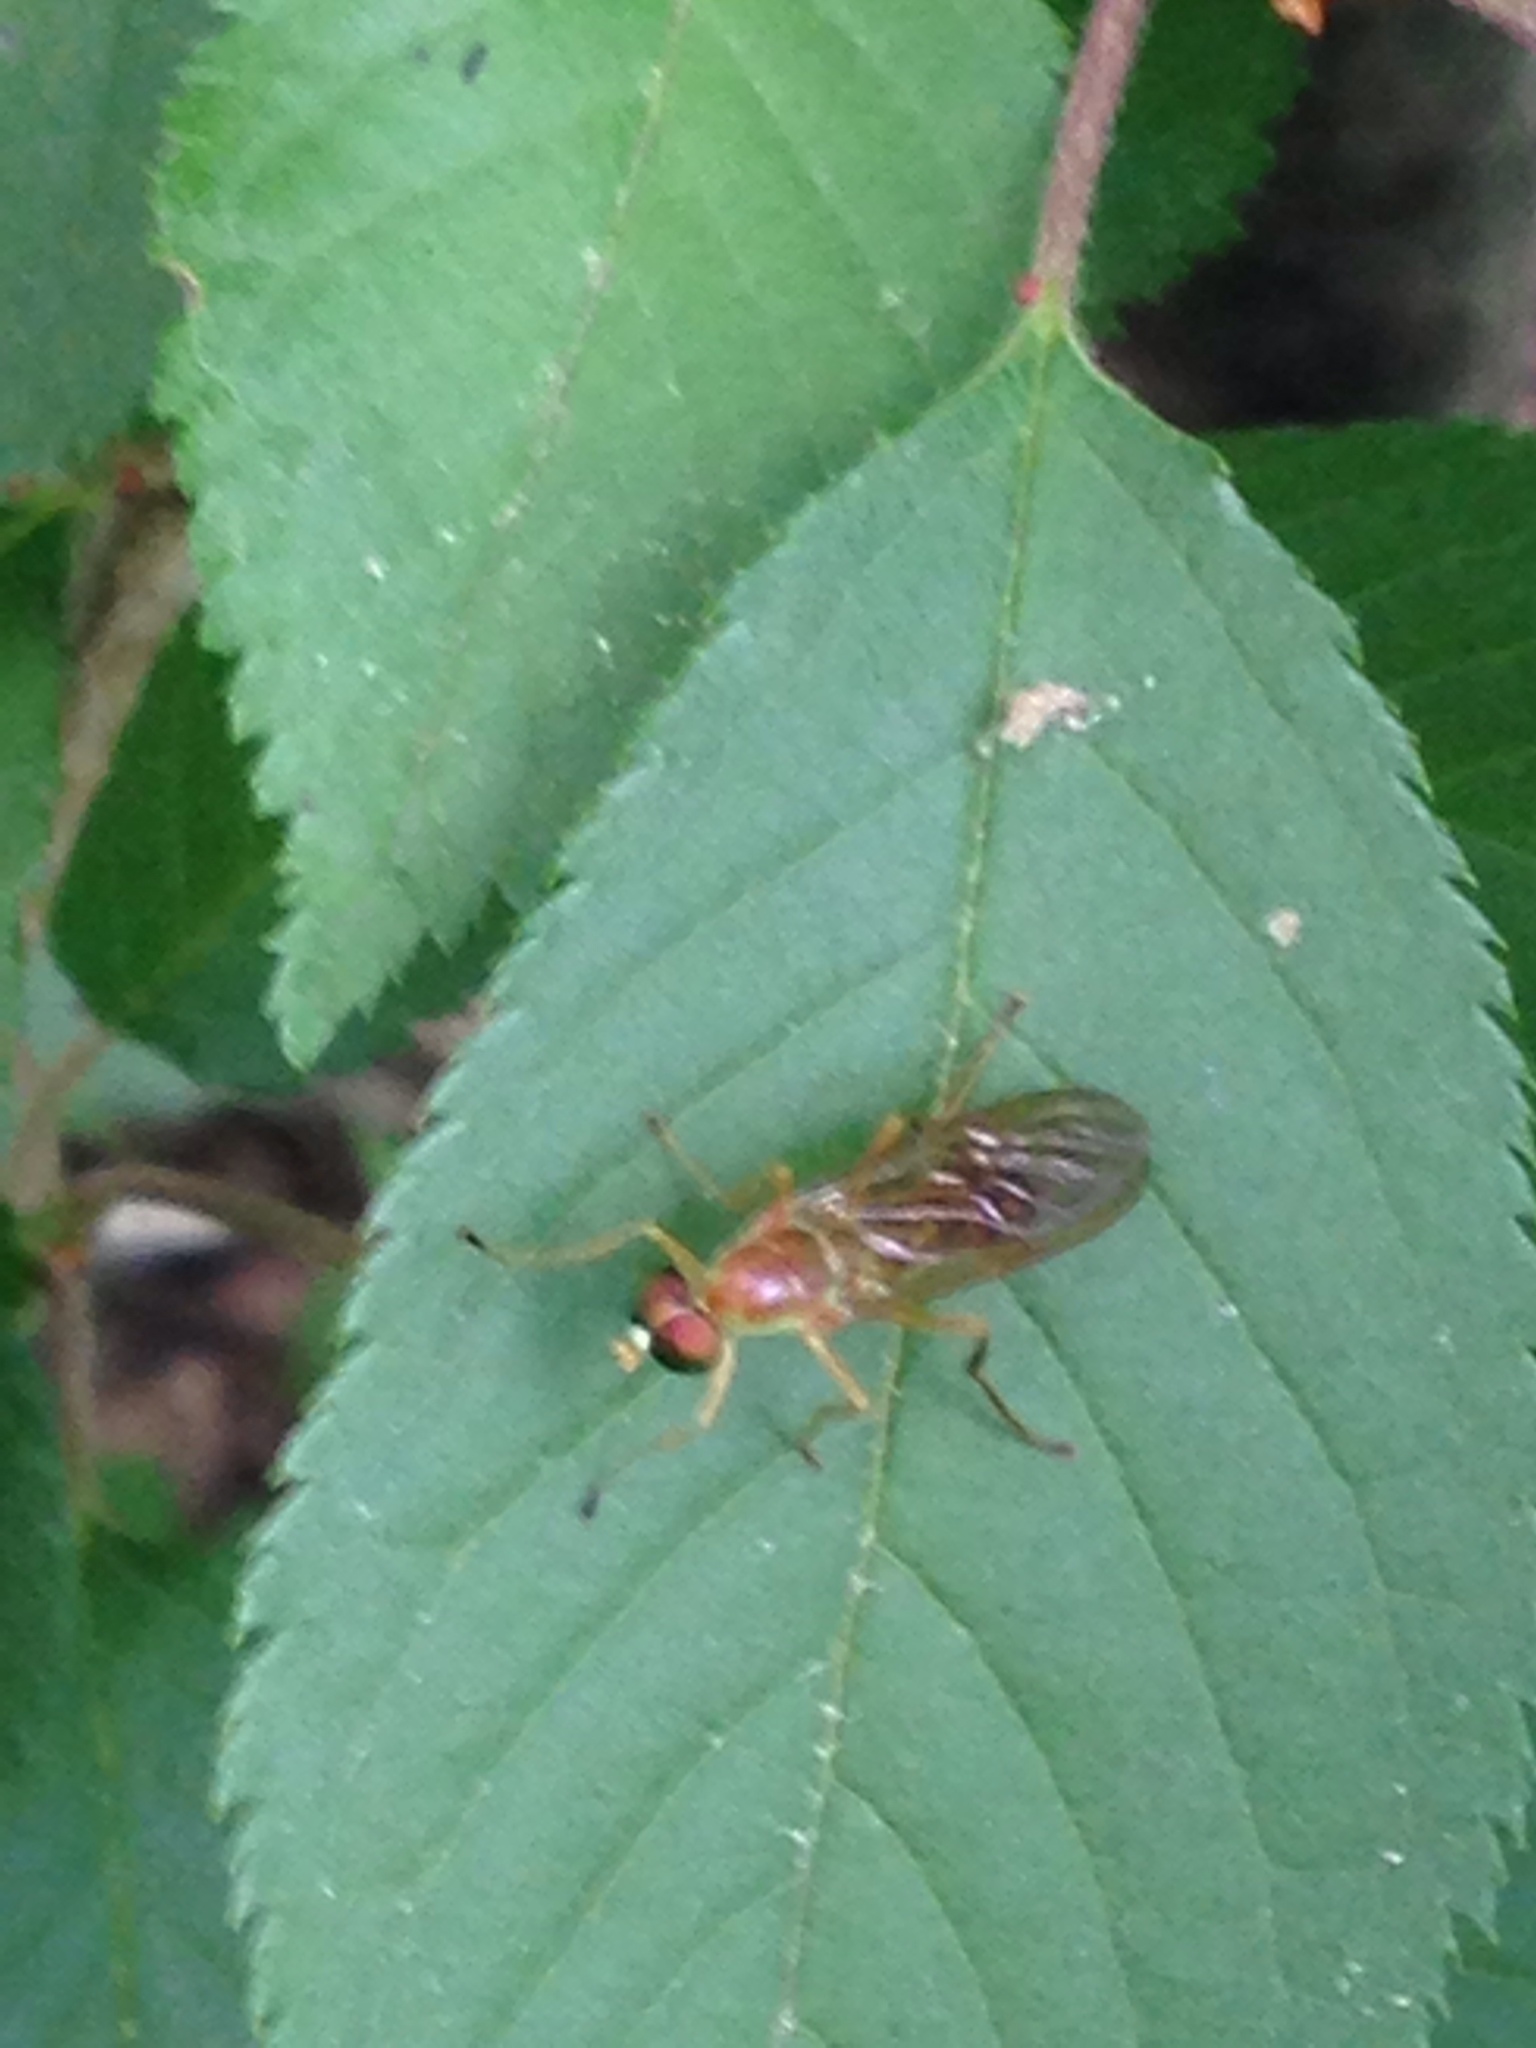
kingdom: Animalia
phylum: Arthropoda
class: Insecta
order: Diptera
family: Stratiomyidae
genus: Ptecticus
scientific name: Ptecticus trivittatus
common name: Compost fly
